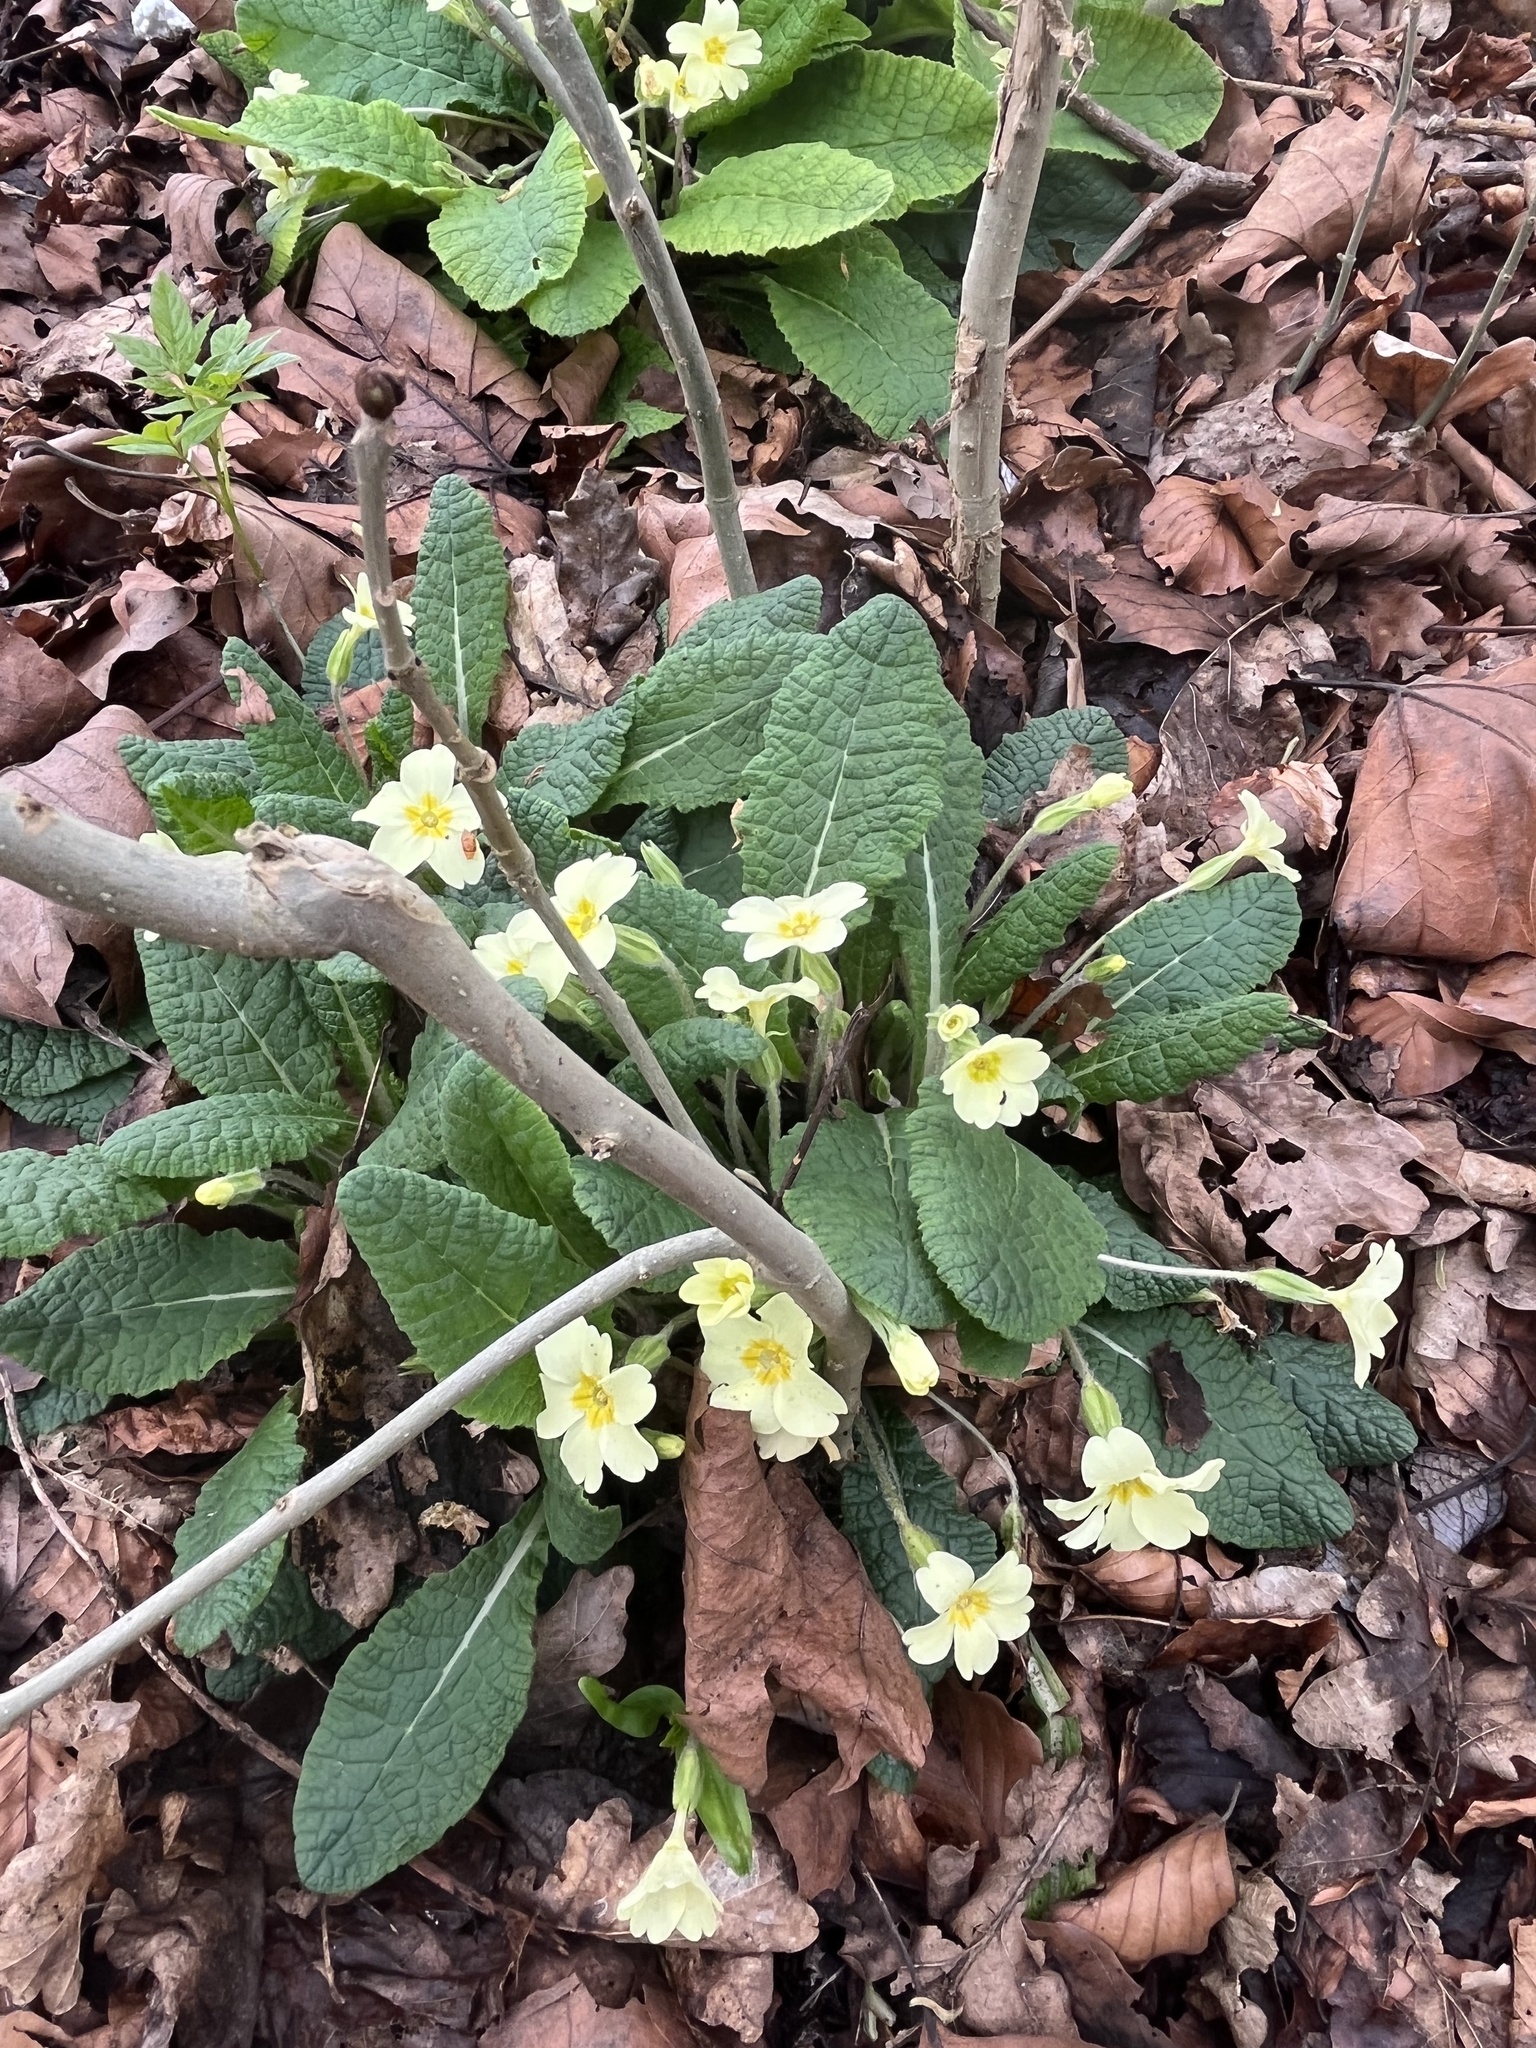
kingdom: Plantae
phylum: Tracheophyta
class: Magnoliopsida
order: Ericales
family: Primulaceae
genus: Primula
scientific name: Primula vulgaris
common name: Primrose
